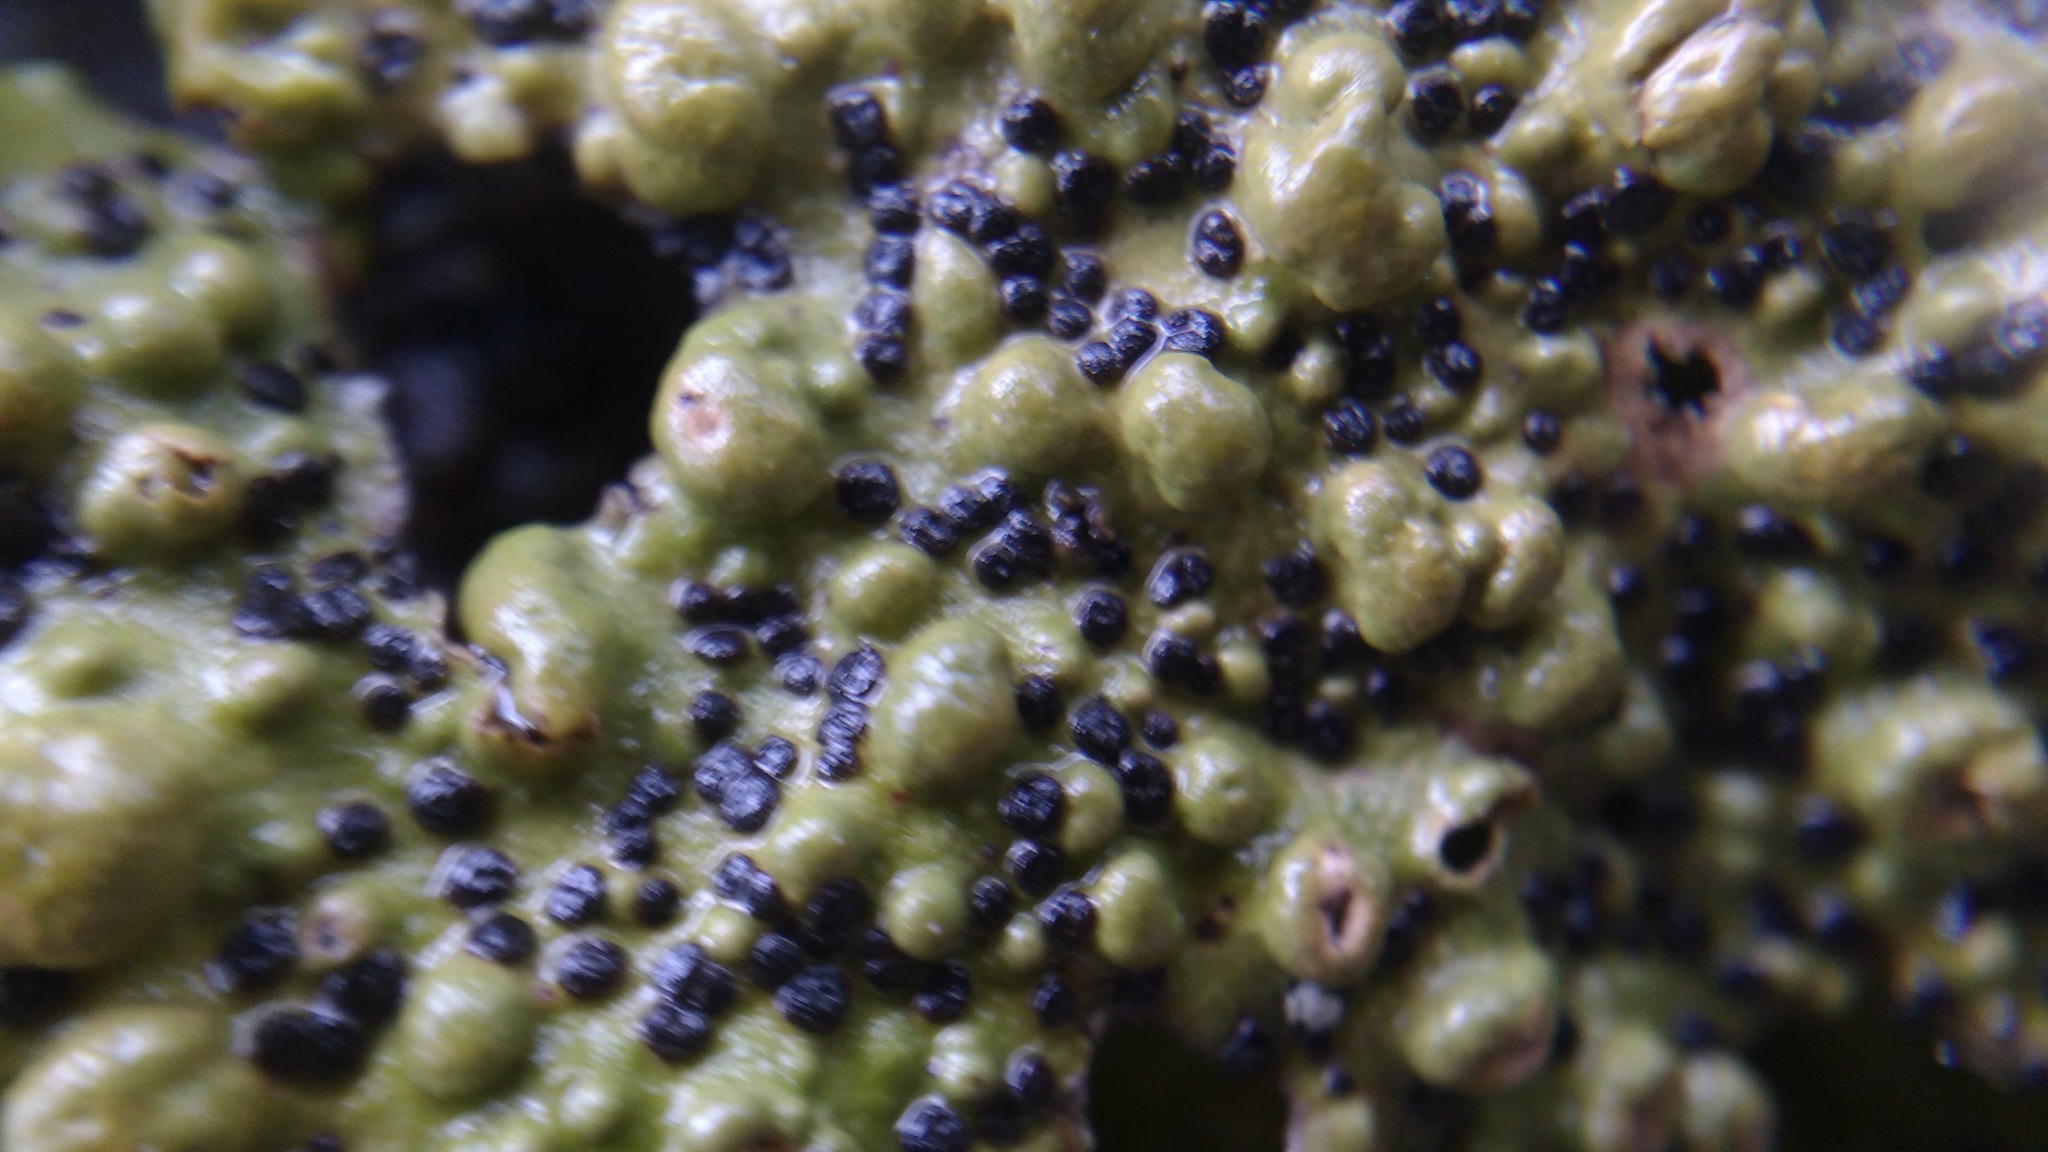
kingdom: Fungi
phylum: Ascomycota
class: Lecanoromycetes
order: Umbilicariales
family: Umbilicariaceae
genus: Lasallia
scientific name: Lasallia papulosa
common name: Common toadskin lichen
